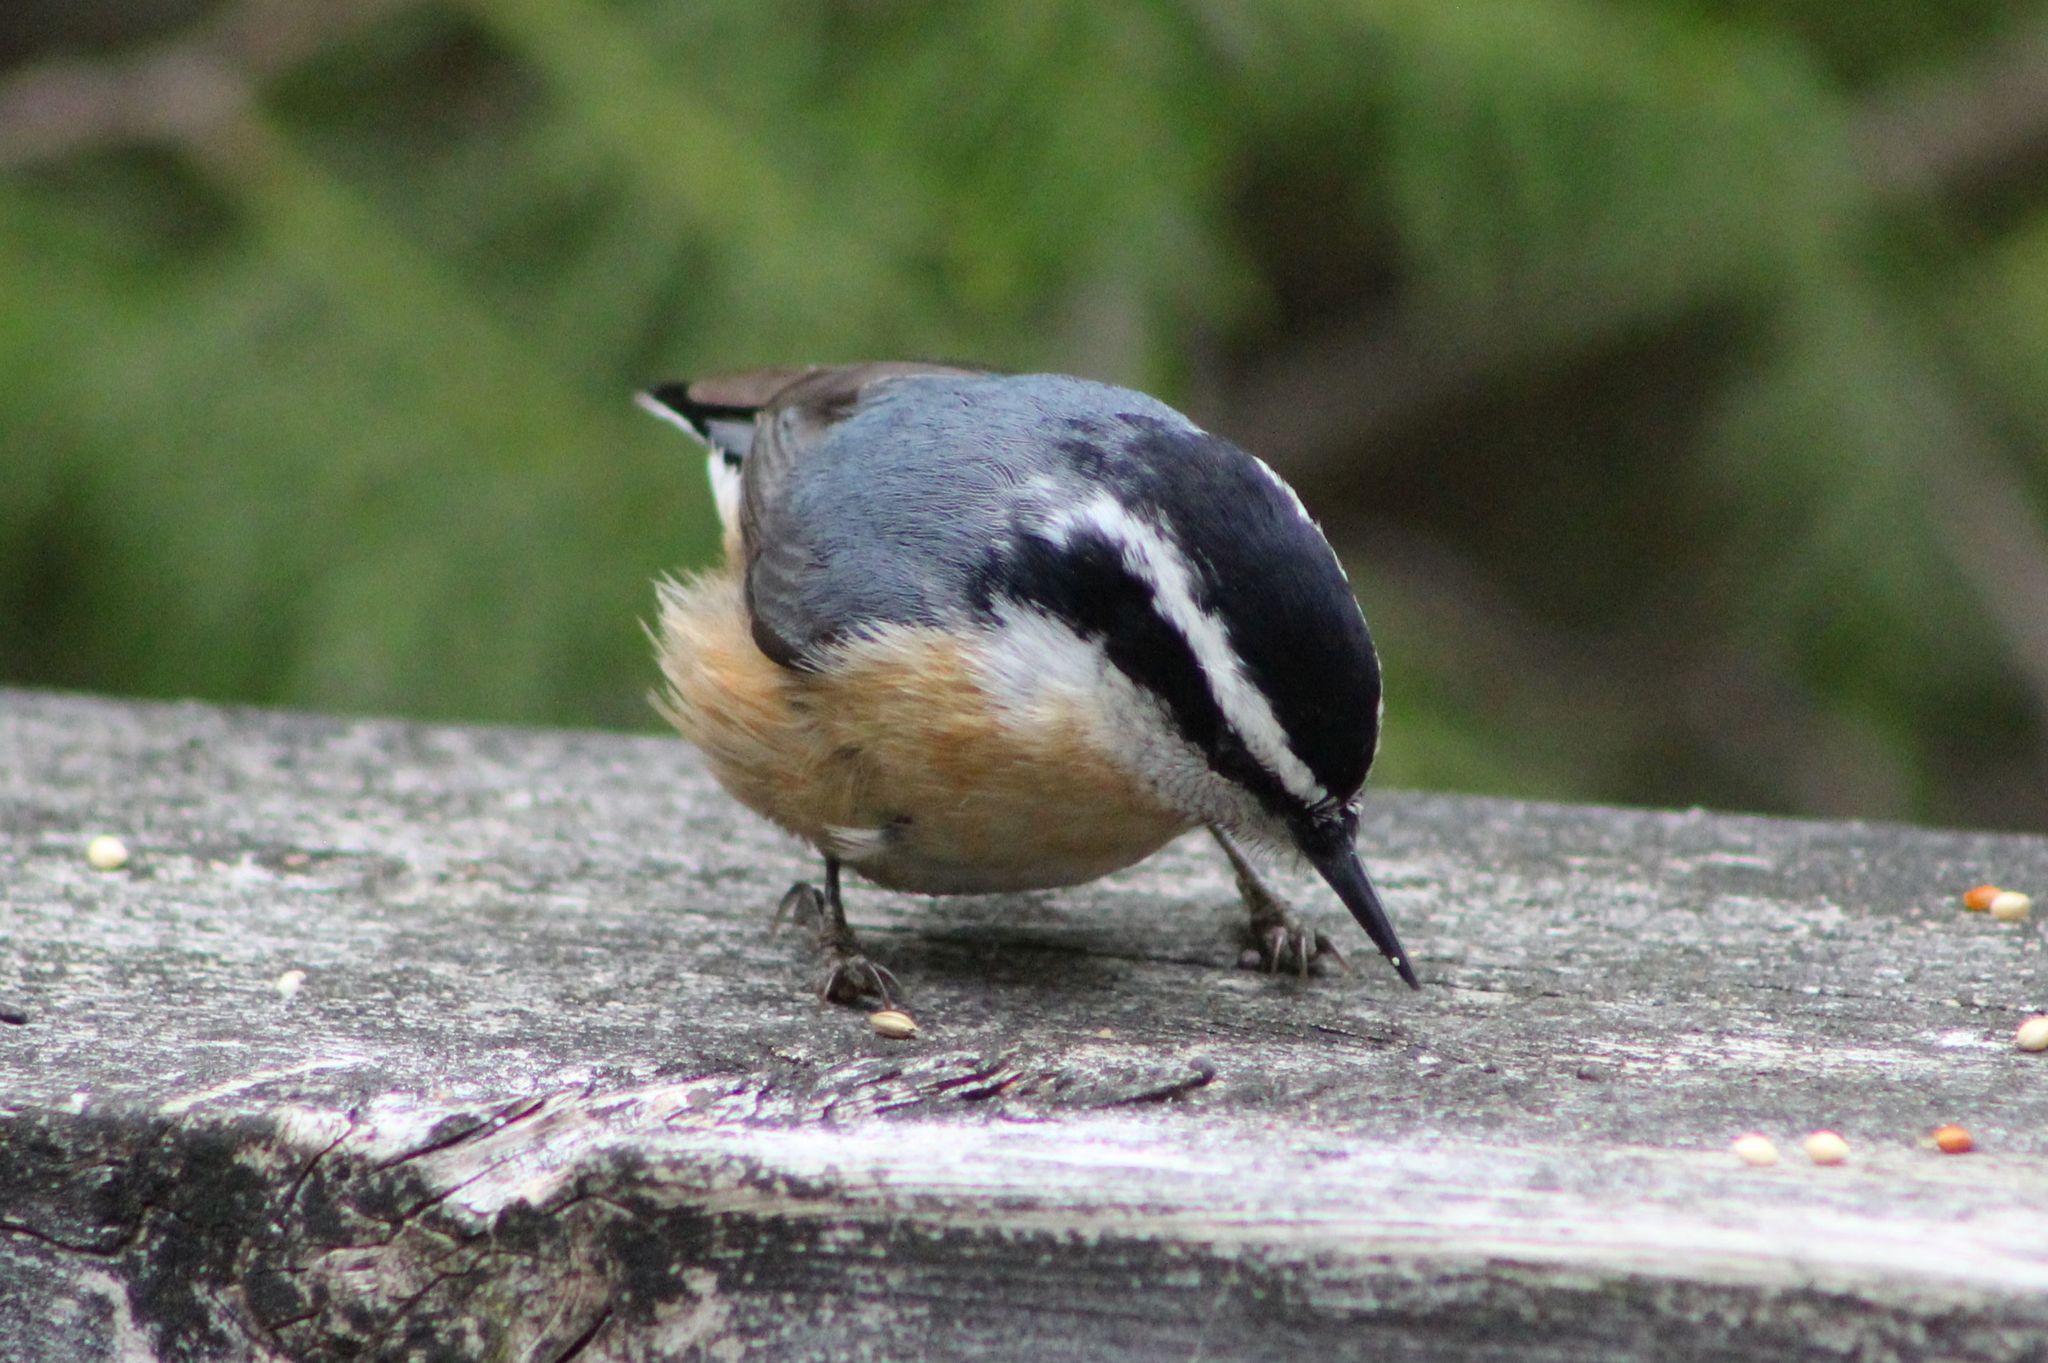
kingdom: Animalia
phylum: Chordata
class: Aves
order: Passeriformes
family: Sittidae
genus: Sitta
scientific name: Sitta canadensis
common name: Red-breasted nuthatch
